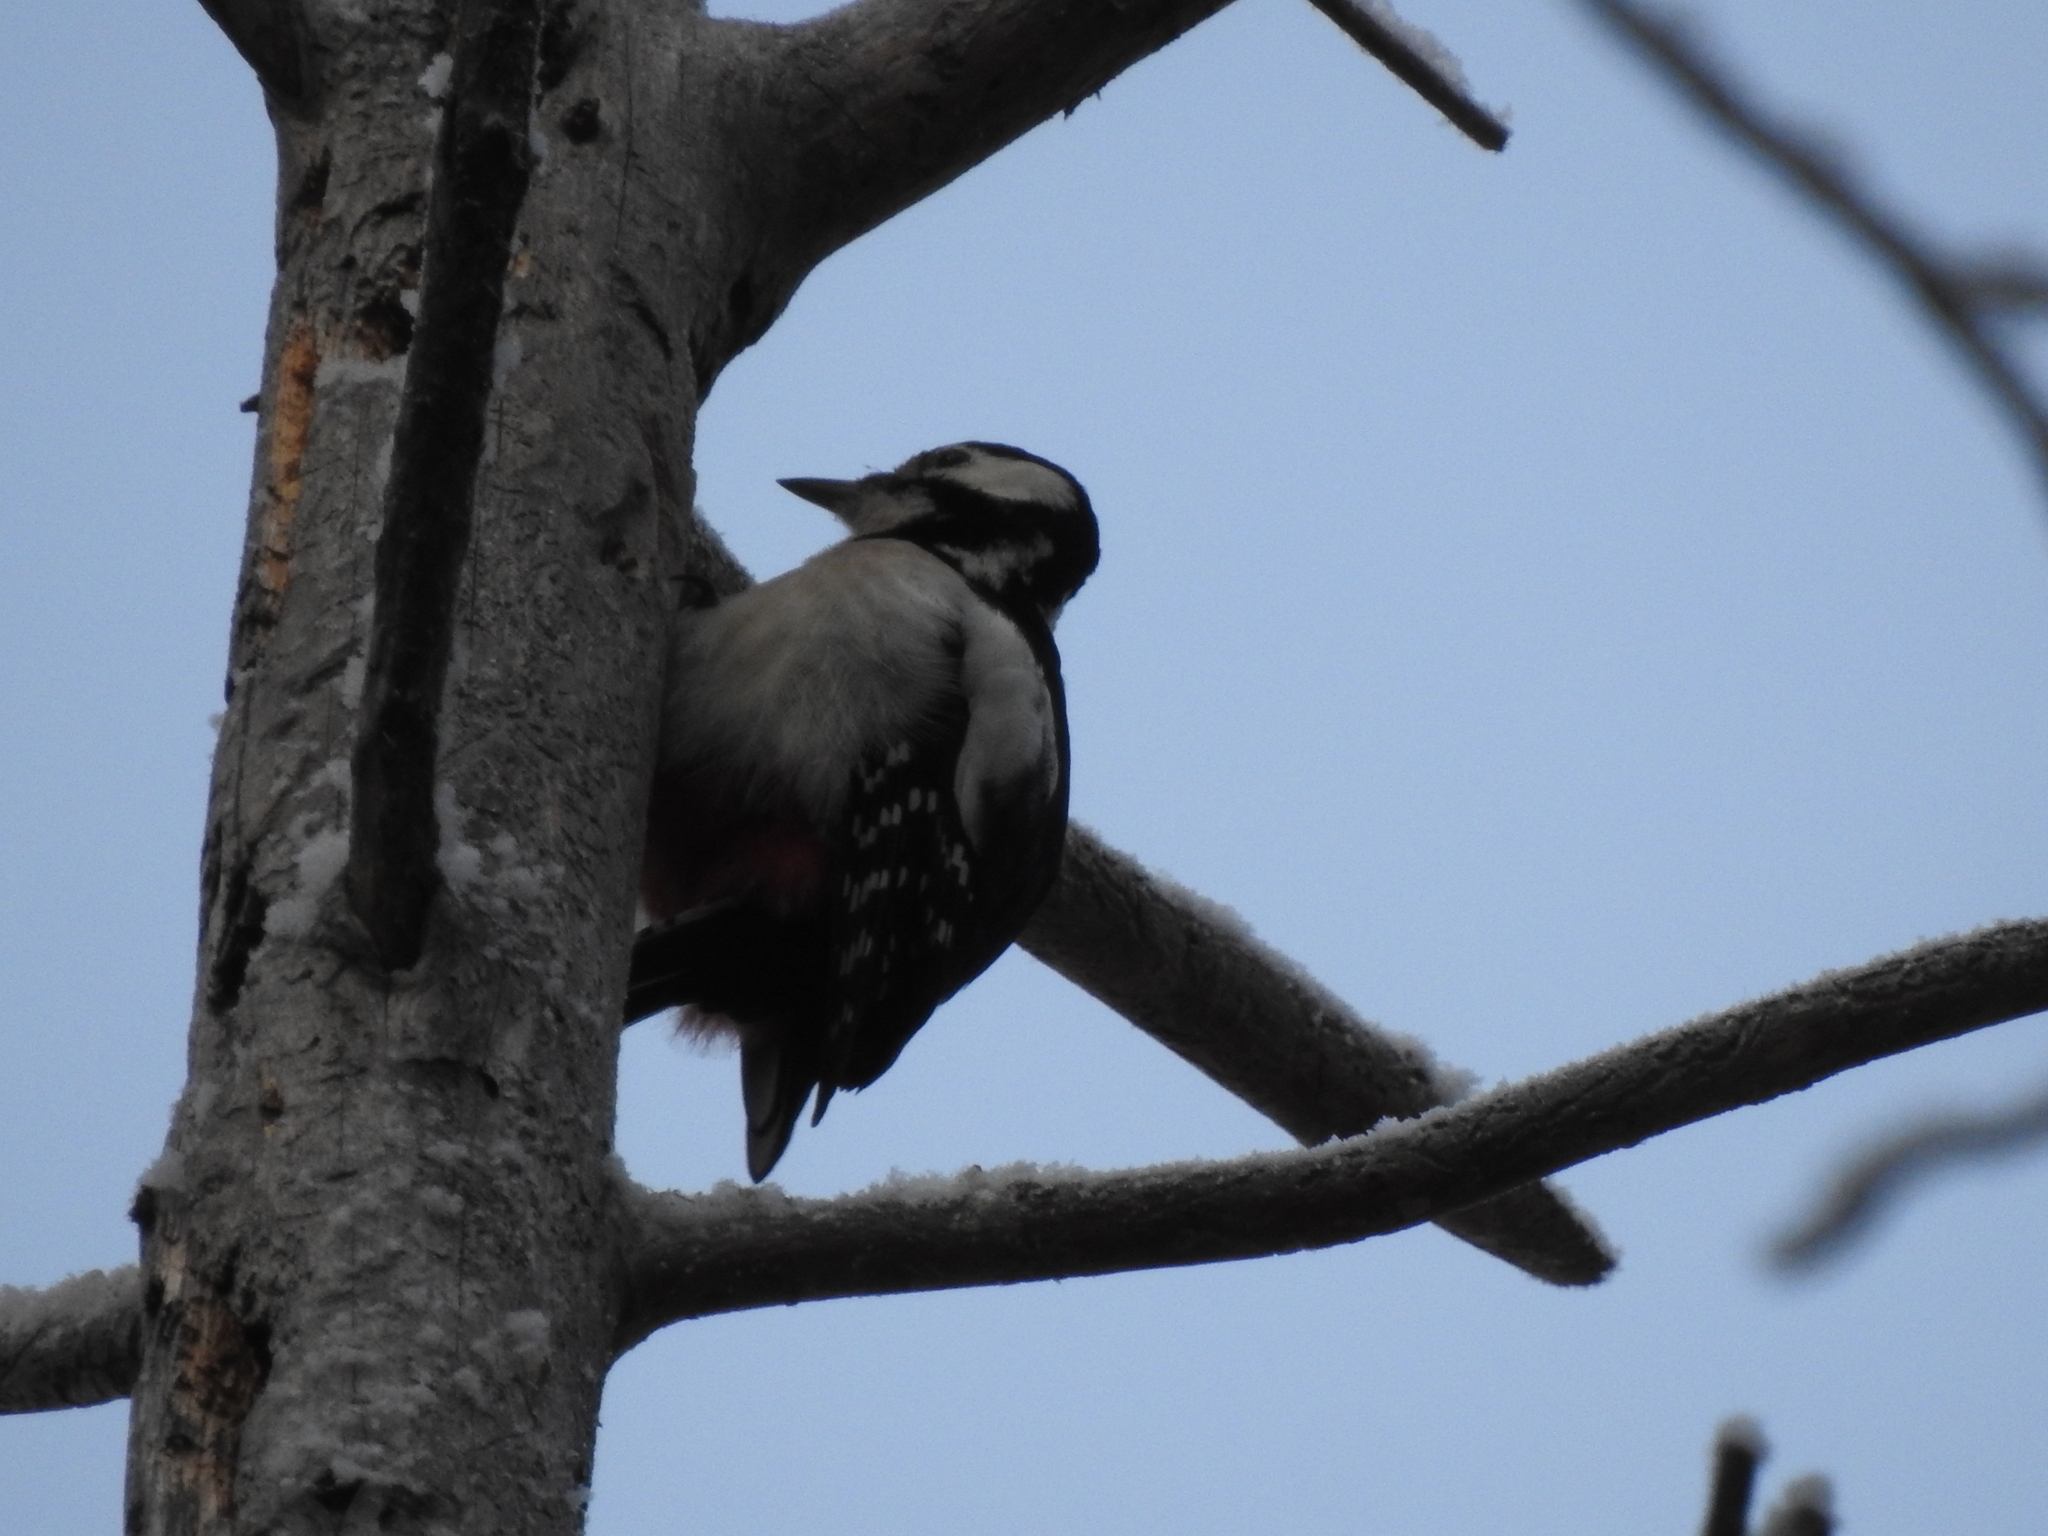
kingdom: Animalia
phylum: Chordata
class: Aves
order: Piciformes
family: Picidae
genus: Dendrocopos
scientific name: Dendrocopos major
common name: Great spotted woodpecker
